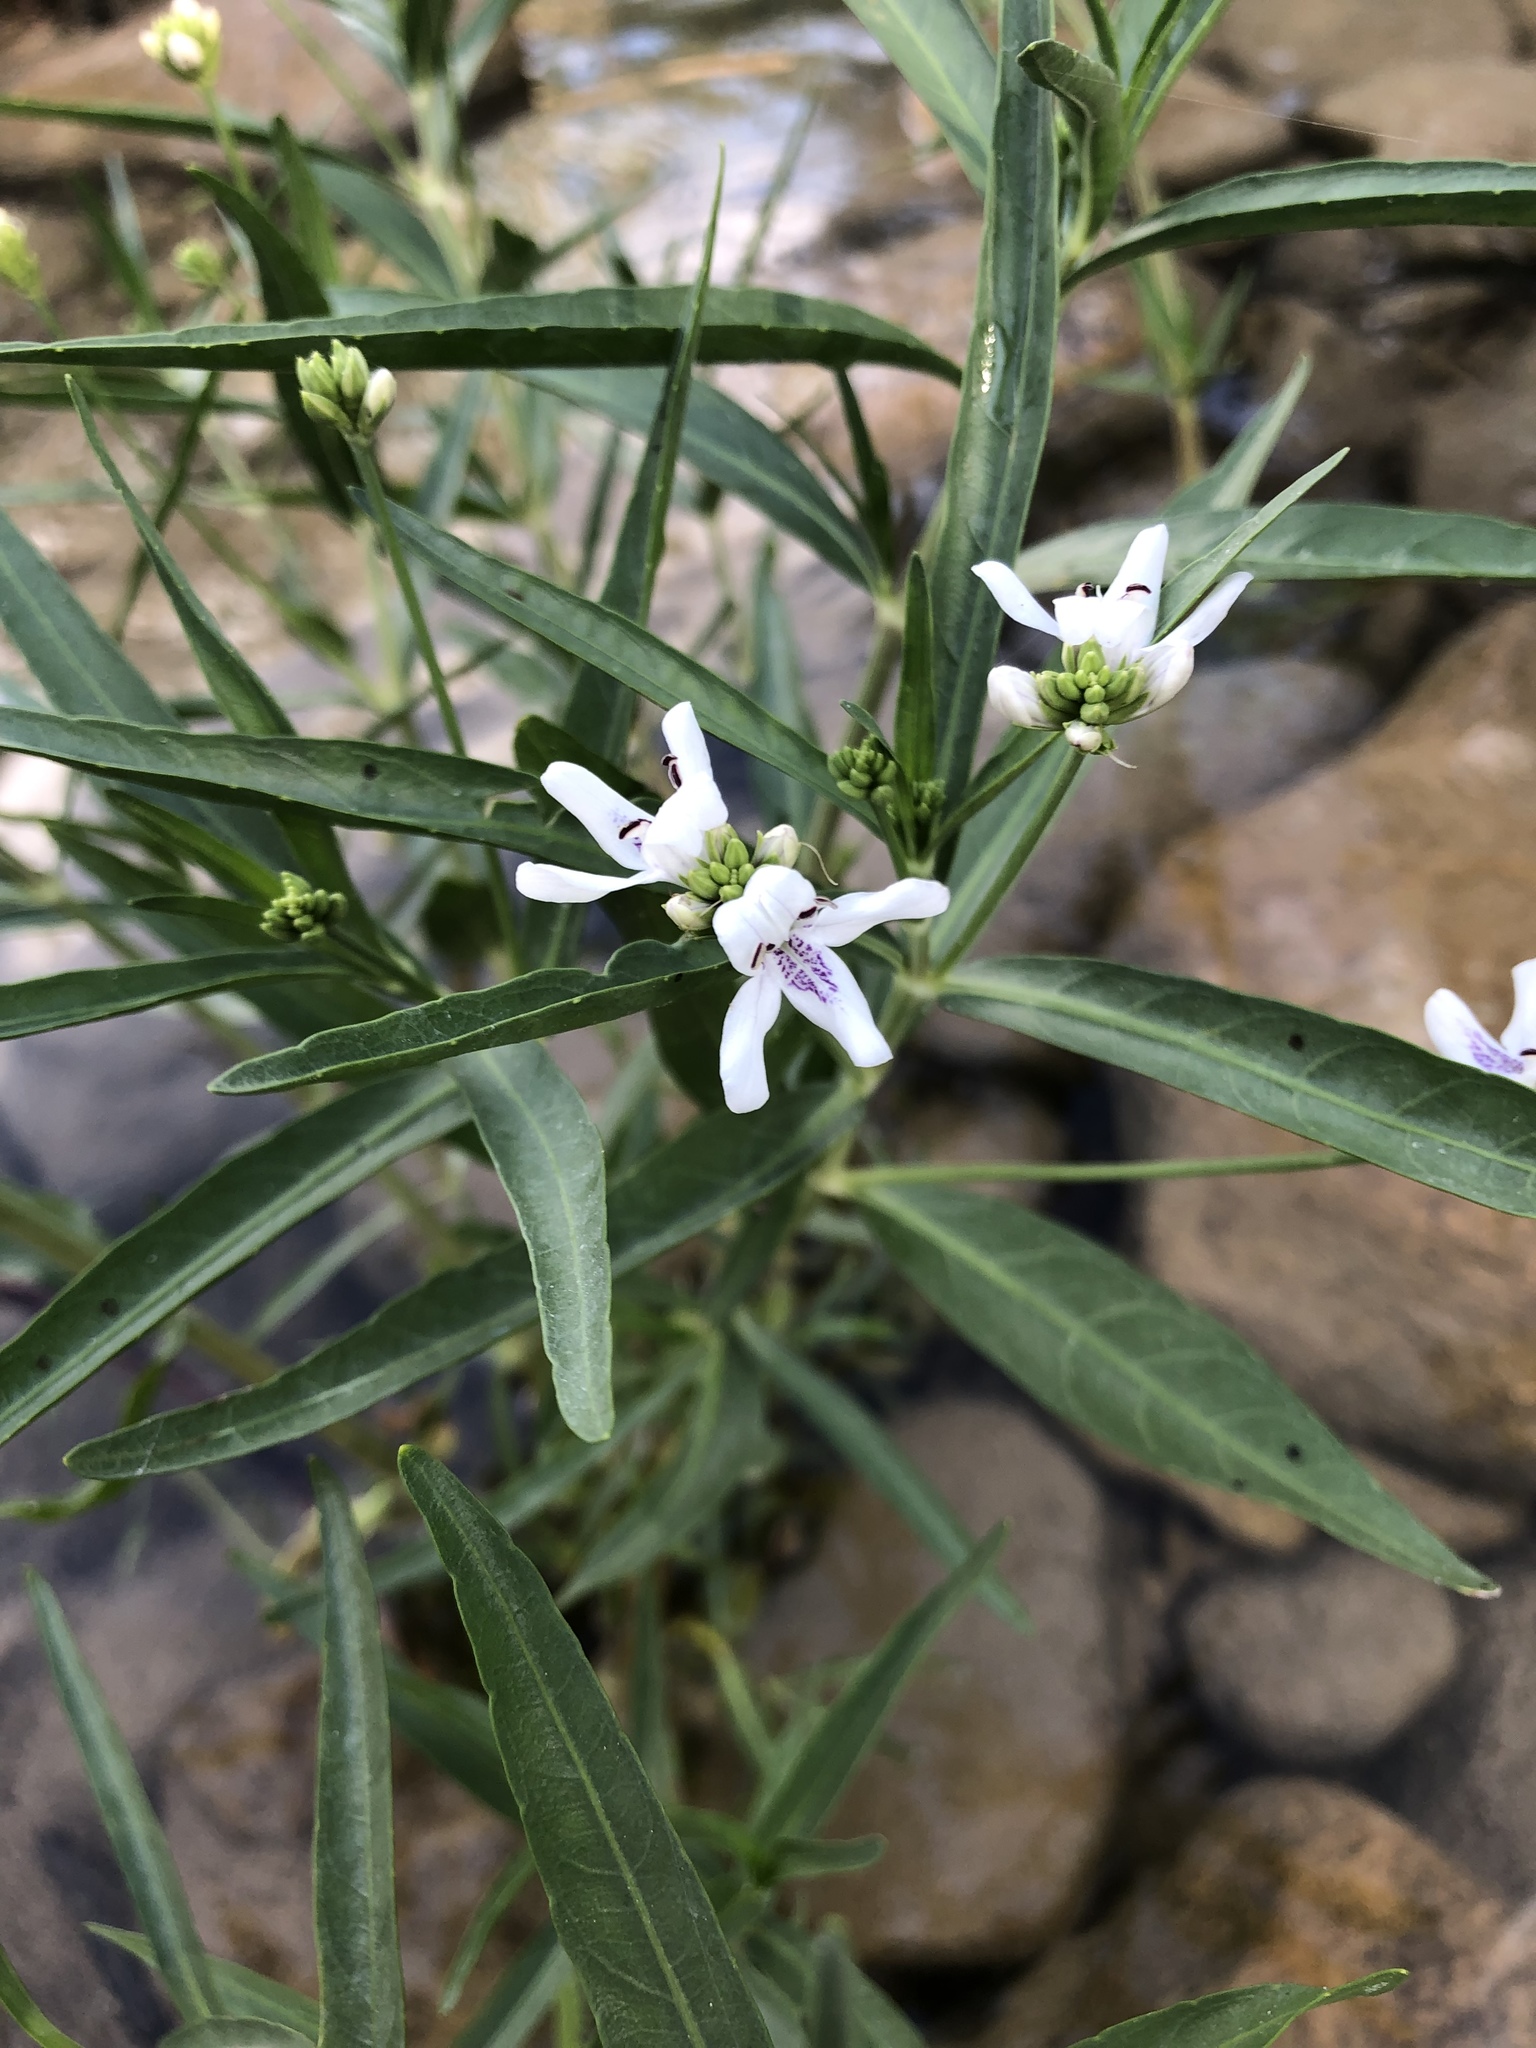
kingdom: Plantae
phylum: Tracheophyta
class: Magnoliopsida
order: Lamiales
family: Acanthaceae
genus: Dianthera
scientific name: Dianthera americana
